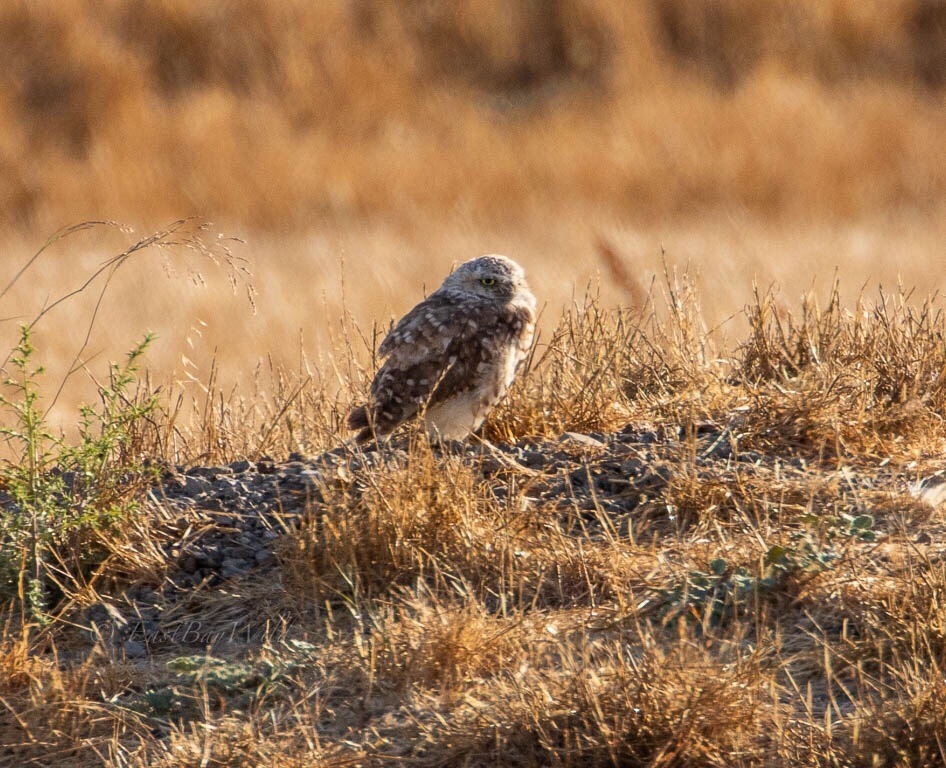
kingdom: Animalia
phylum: Chordata
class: Aves
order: Strigiformes
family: Strigidae
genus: Athene
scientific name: Athene cunicularia
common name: Burrowing owl
